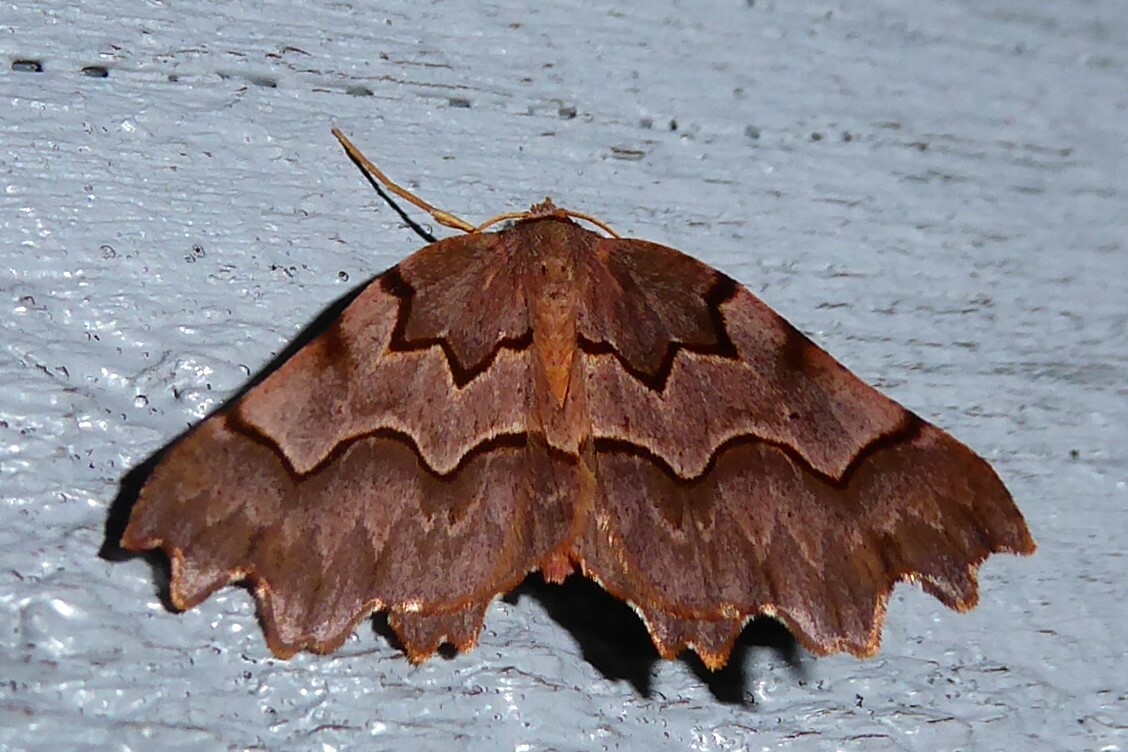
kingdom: Animalia
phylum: Arthropoda
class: Insecta
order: Lepidoptera
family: Geometridae
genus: Ischalis
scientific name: Ischalis fortinata
